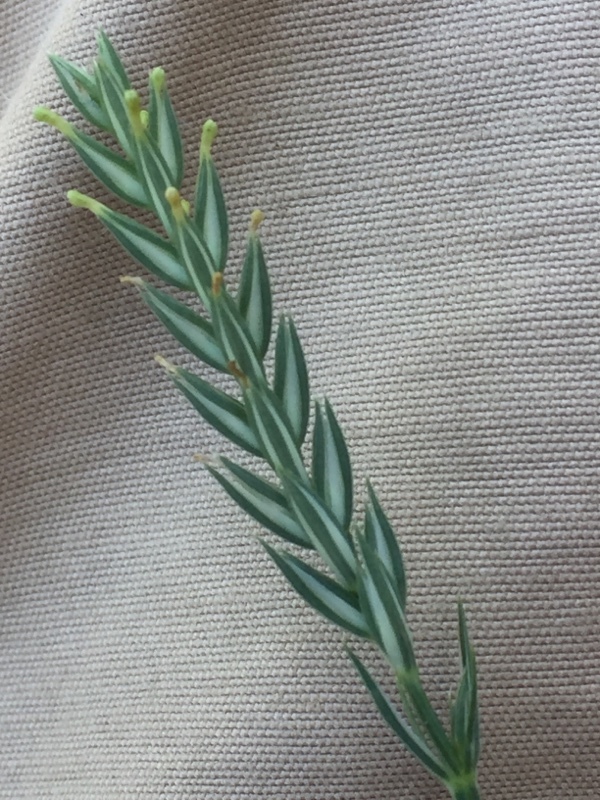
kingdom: Plantae
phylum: Tracheophyta
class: Magnoliopsida
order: Gentianales
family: Rubiaceae
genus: Crucianella
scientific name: Crucianella angustifolia
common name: Narrowleaf crucianella
